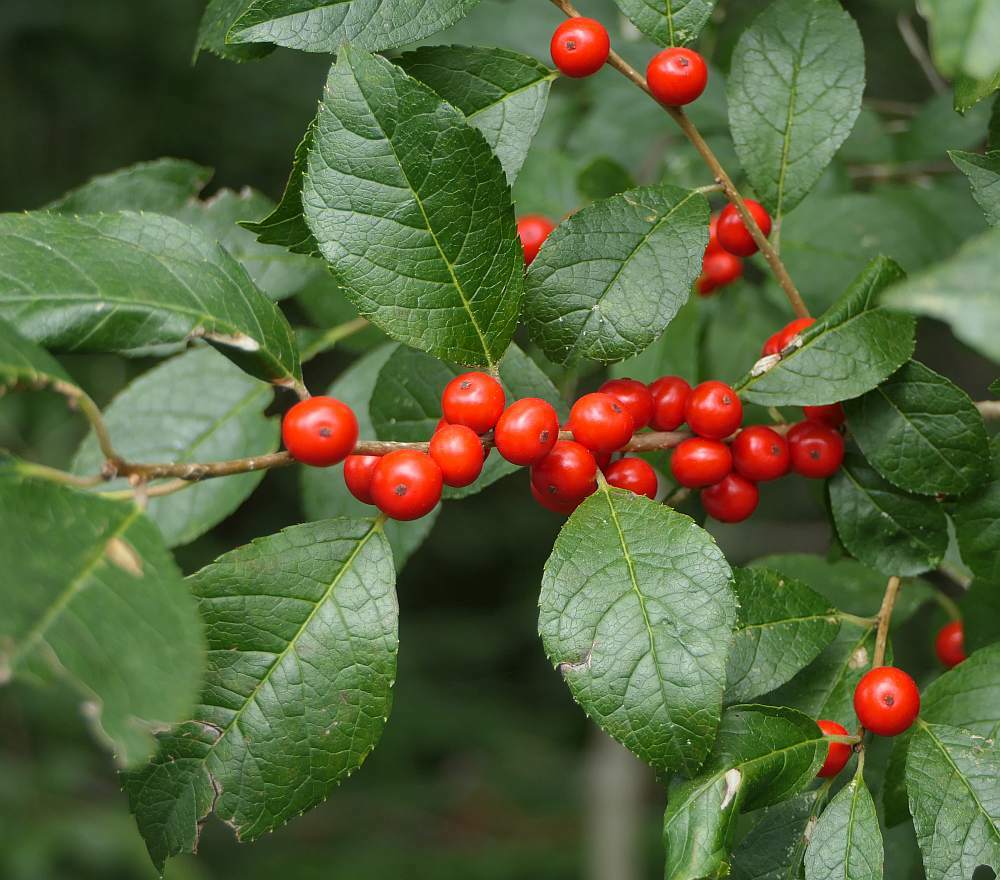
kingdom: Plantae
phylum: Tracheophyta
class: Magnoliopsida
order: Aquifoliales
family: Aquifoliaceae
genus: Ilex
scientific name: Ilex verticillata
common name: Virginia winterberry
